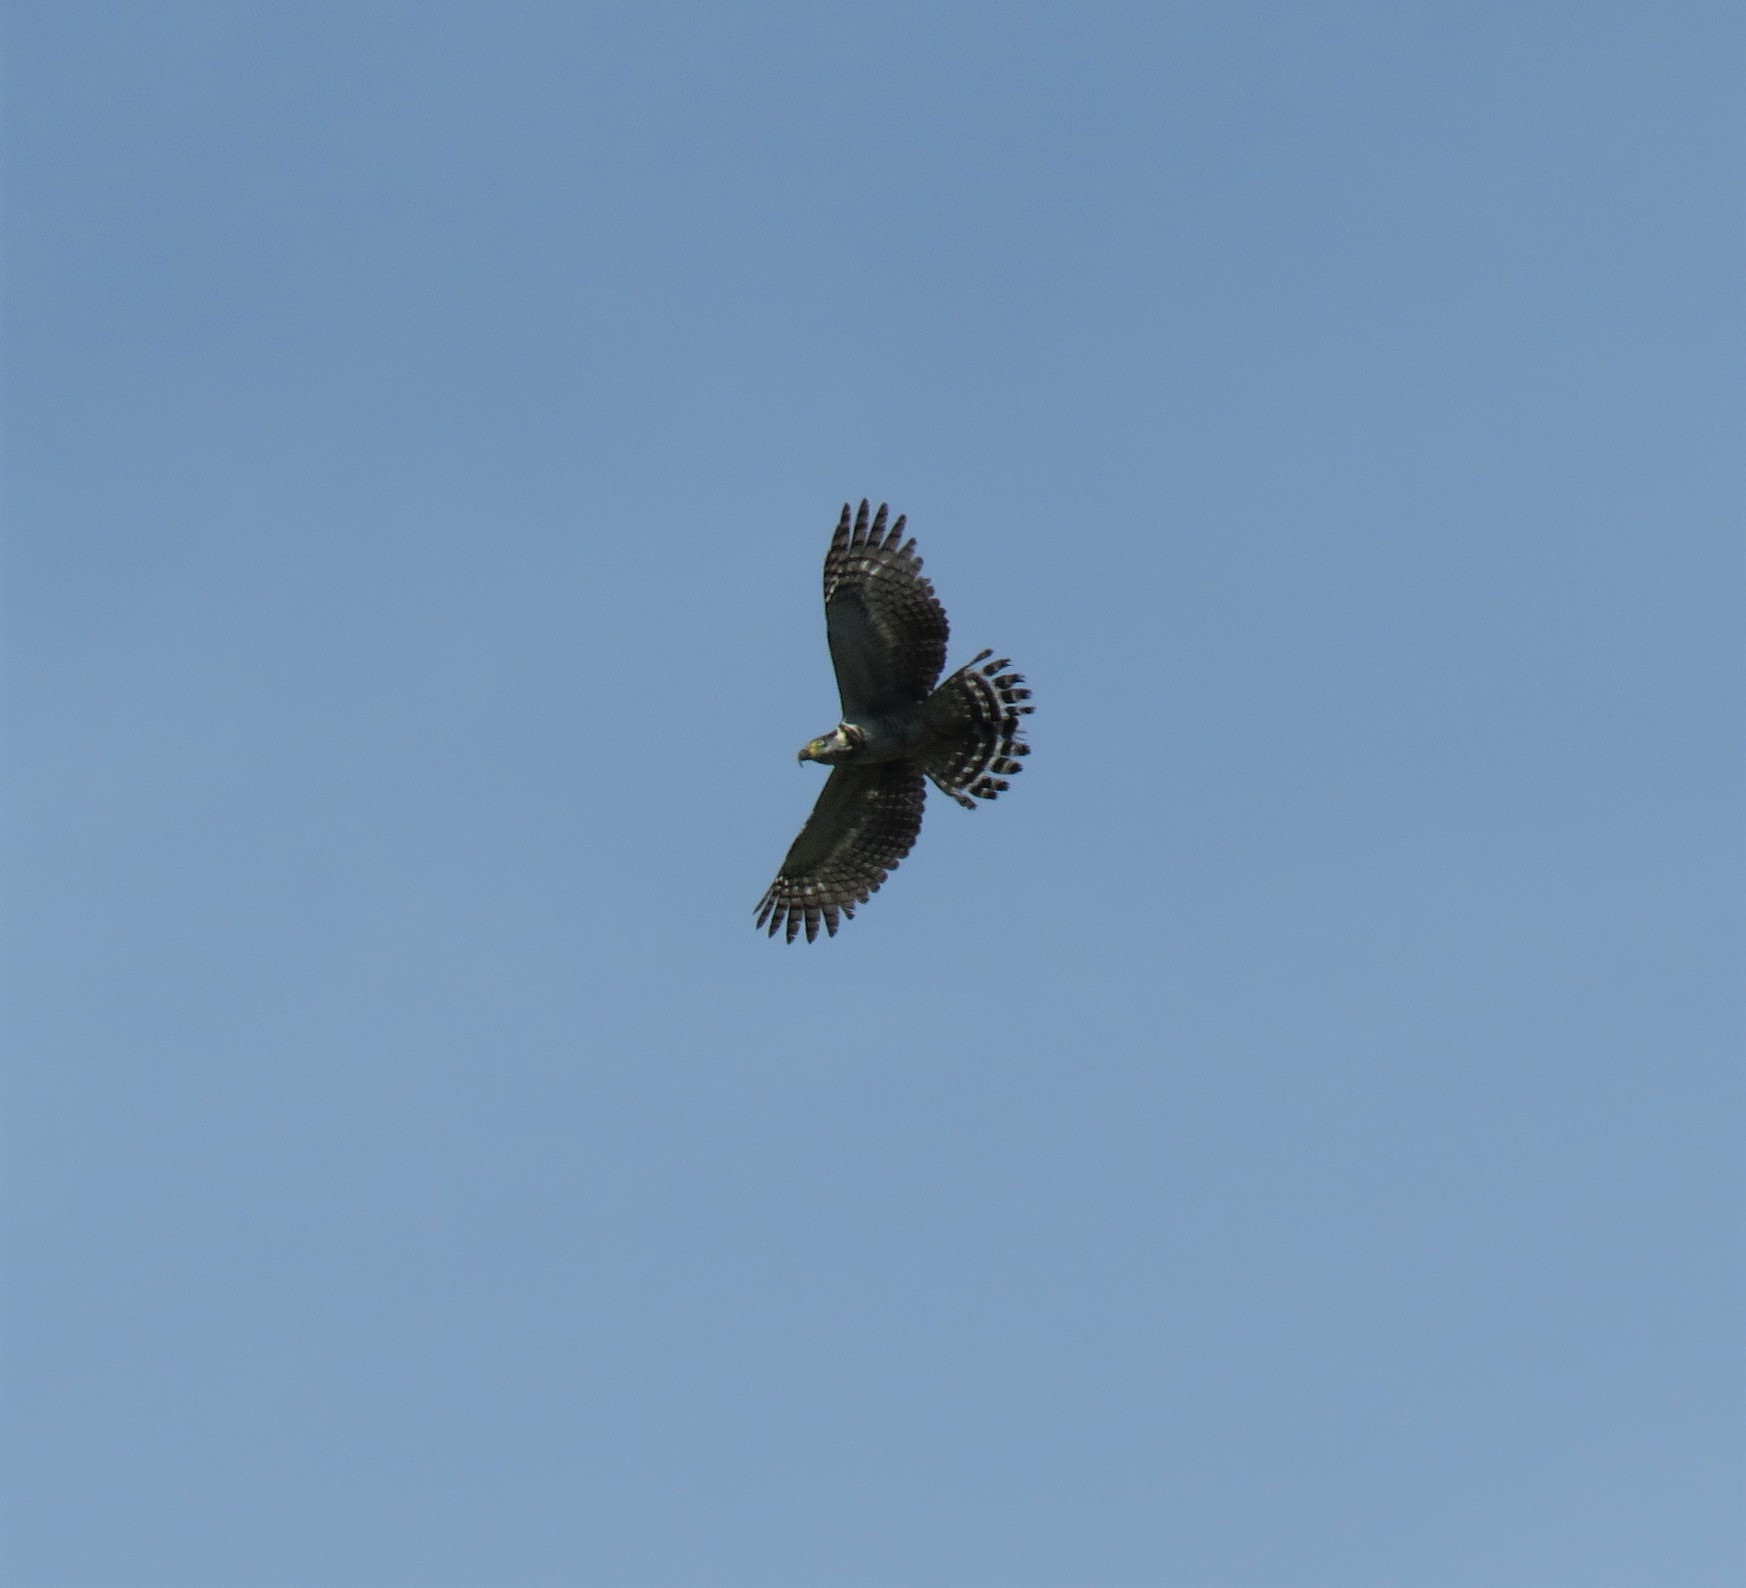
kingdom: Animalia
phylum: Chordata
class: Aves
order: Accipitriformes
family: Accipitridae
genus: Chondrohierax
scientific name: Chondrohierax uncinatus
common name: Hook-billed kite
